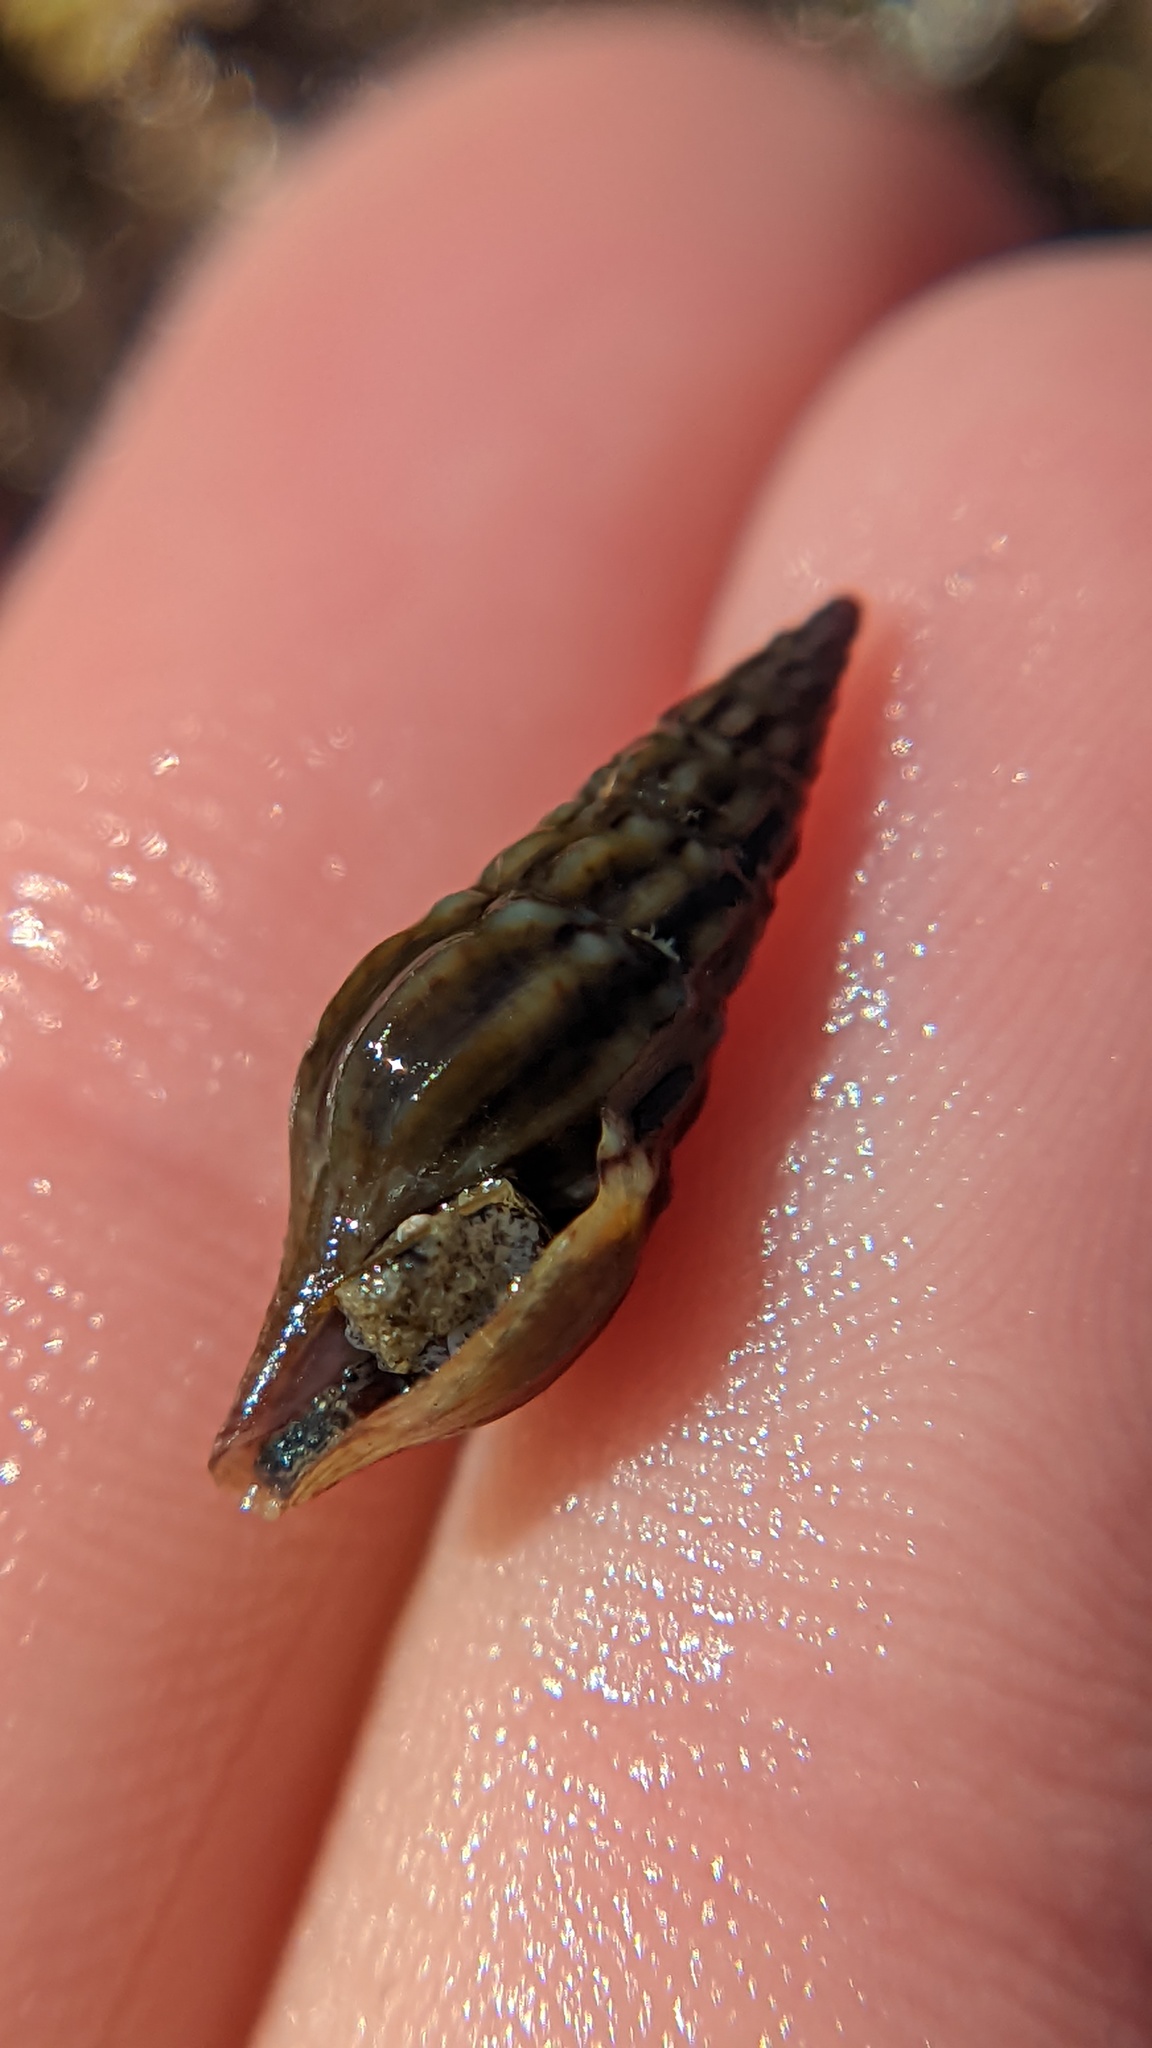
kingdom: Animalia
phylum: Mollusca
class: Gastropoda
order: Neogastropoda
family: Pseudomelatomidae
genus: Burchia
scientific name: Burchia semiinflata
